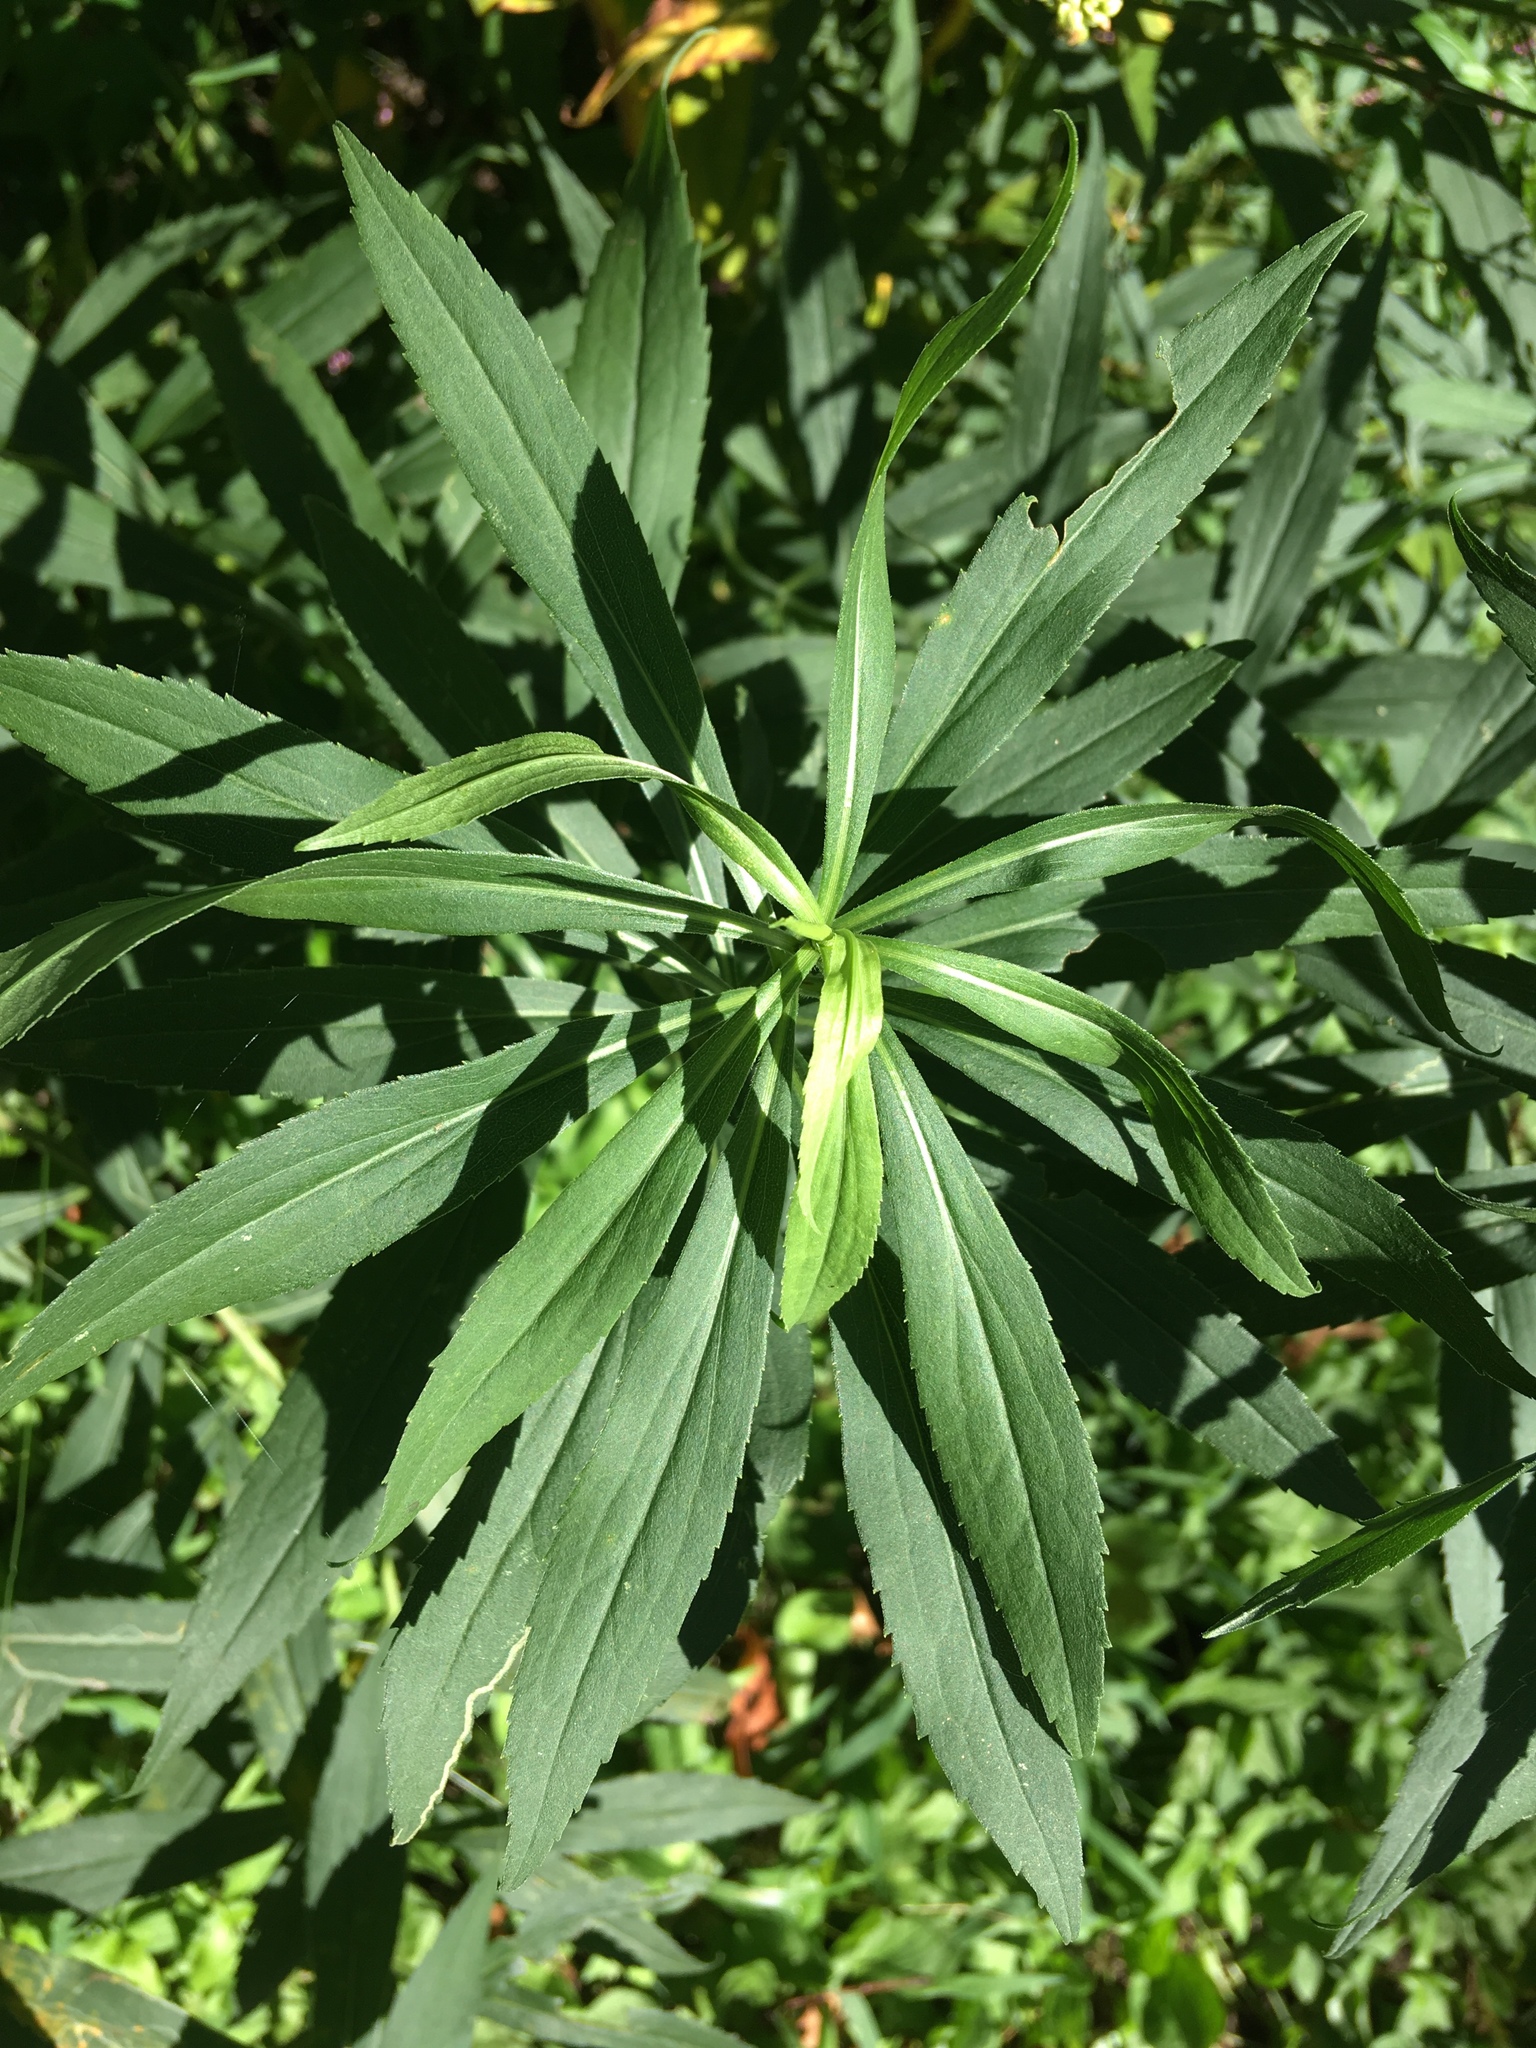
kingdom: Plantae
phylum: Tracheophyta
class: Magnoliopsida
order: Asterales
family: Asteraceae
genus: Solidago
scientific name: Solidago gigantea
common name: Giant goldenrod
